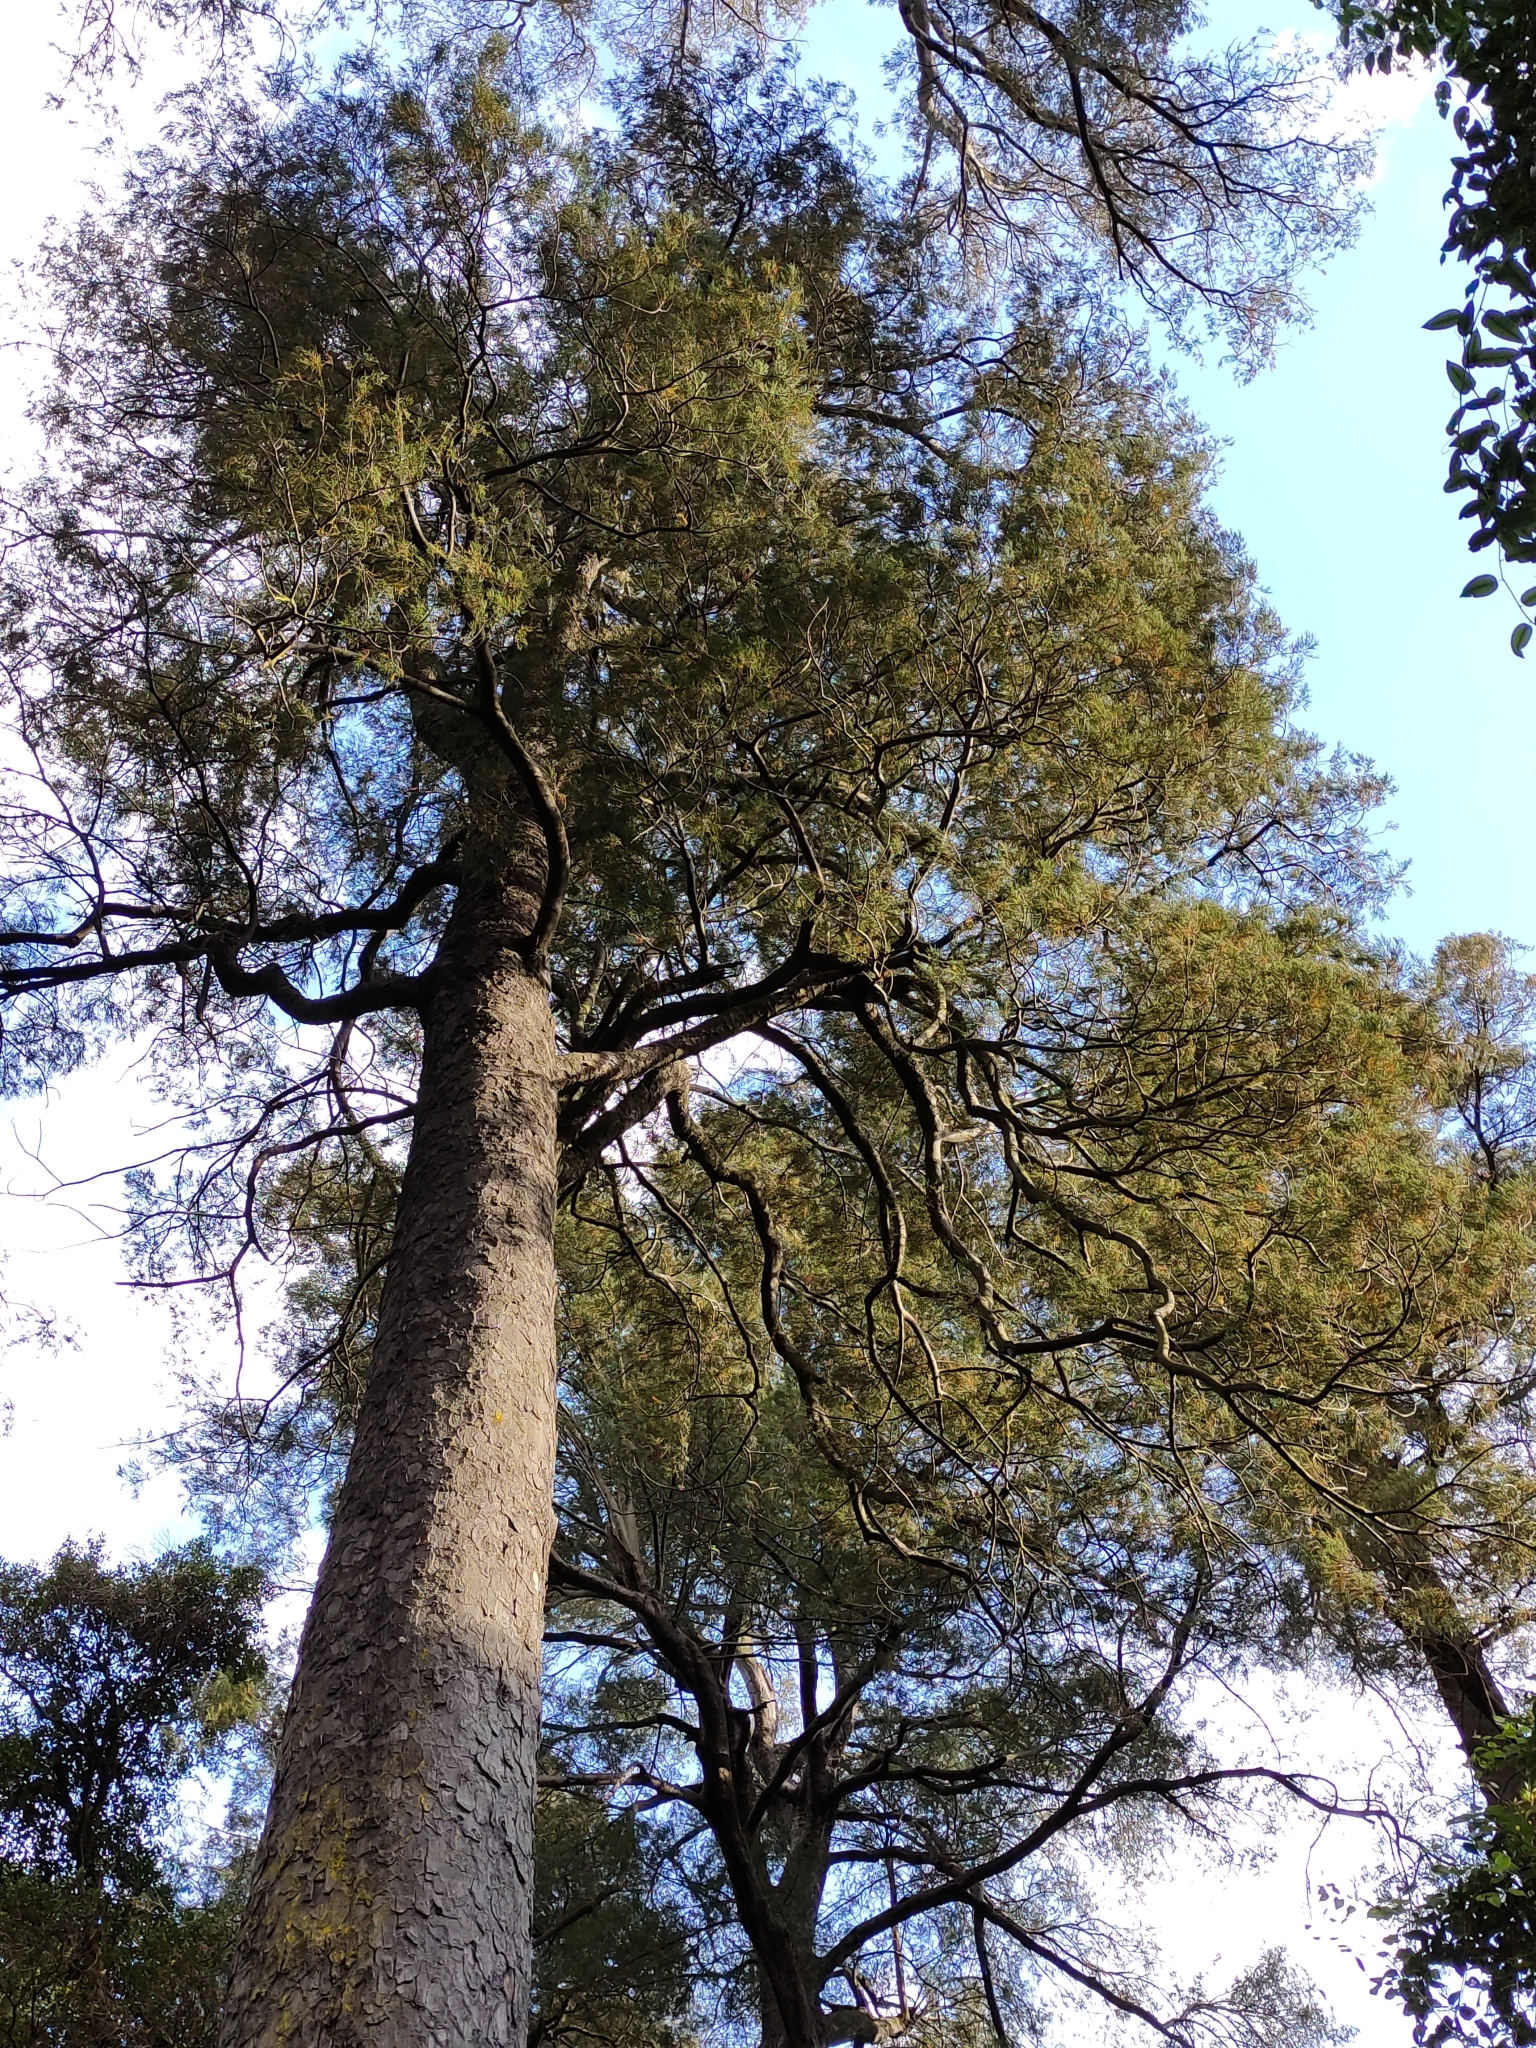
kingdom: Plantae
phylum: Tracheophyta
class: Pinopsida
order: Pinales
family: Podocarpaceae
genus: Dacrycarpus
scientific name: Dacrycarpus dacrydioides
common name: White pine
